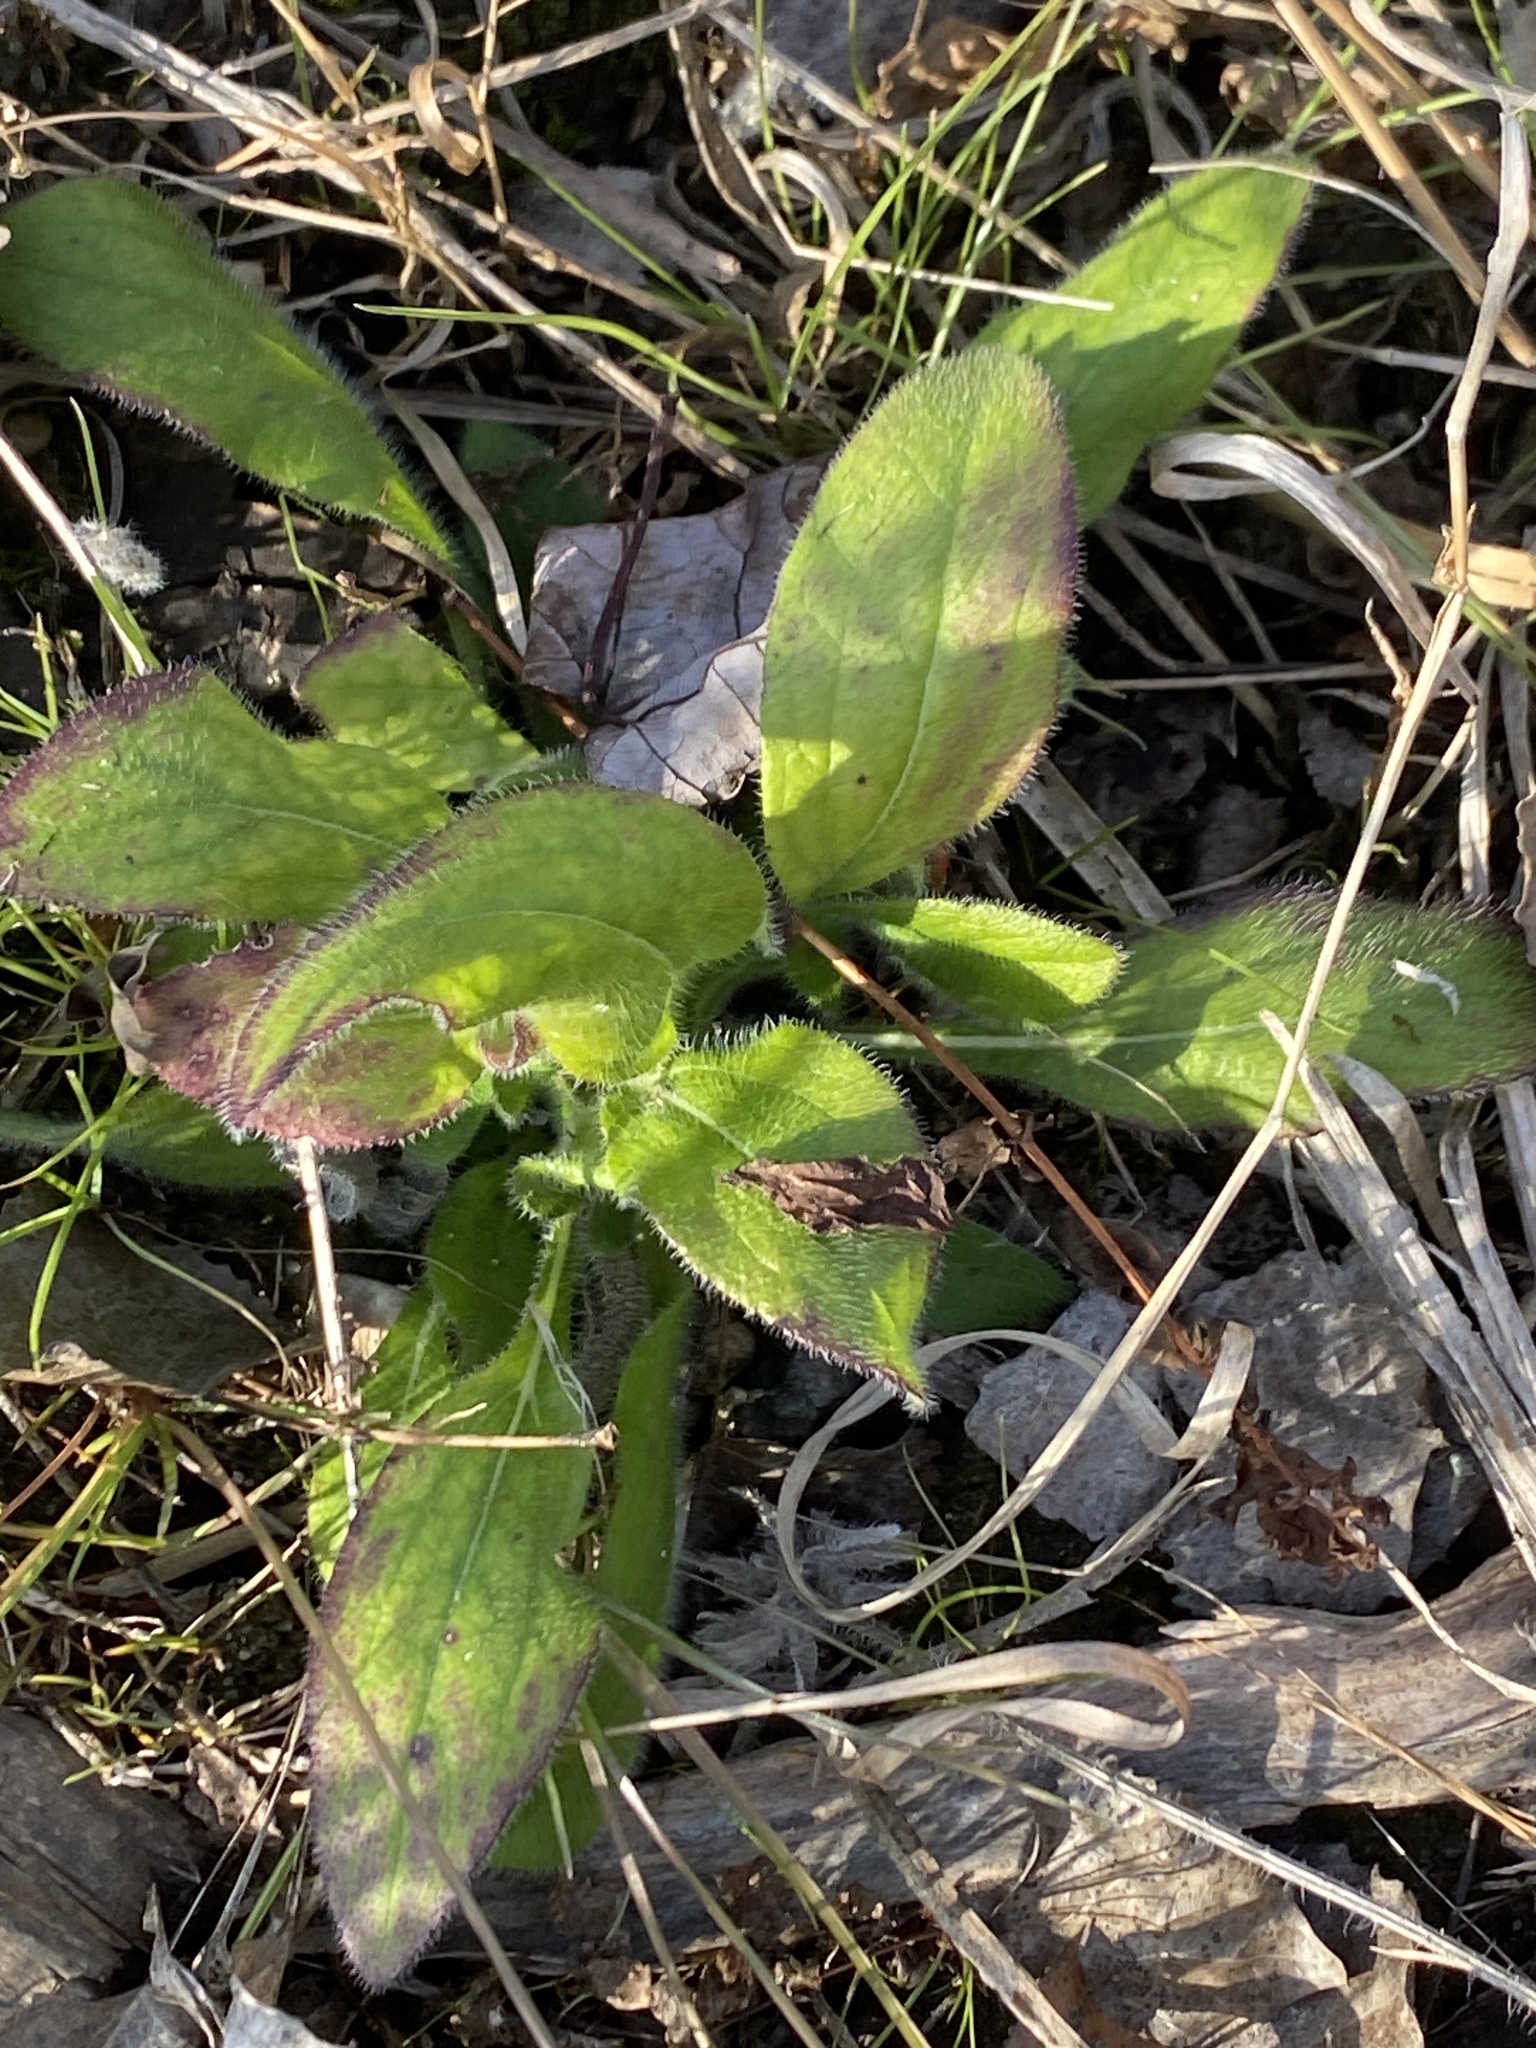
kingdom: Plantae
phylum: Tracheophyta
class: Magnoliopsida
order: Asterales
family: Asteraceae
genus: Rudbeckia
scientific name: Rudbeckia hirta
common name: Black-eyed-susan
